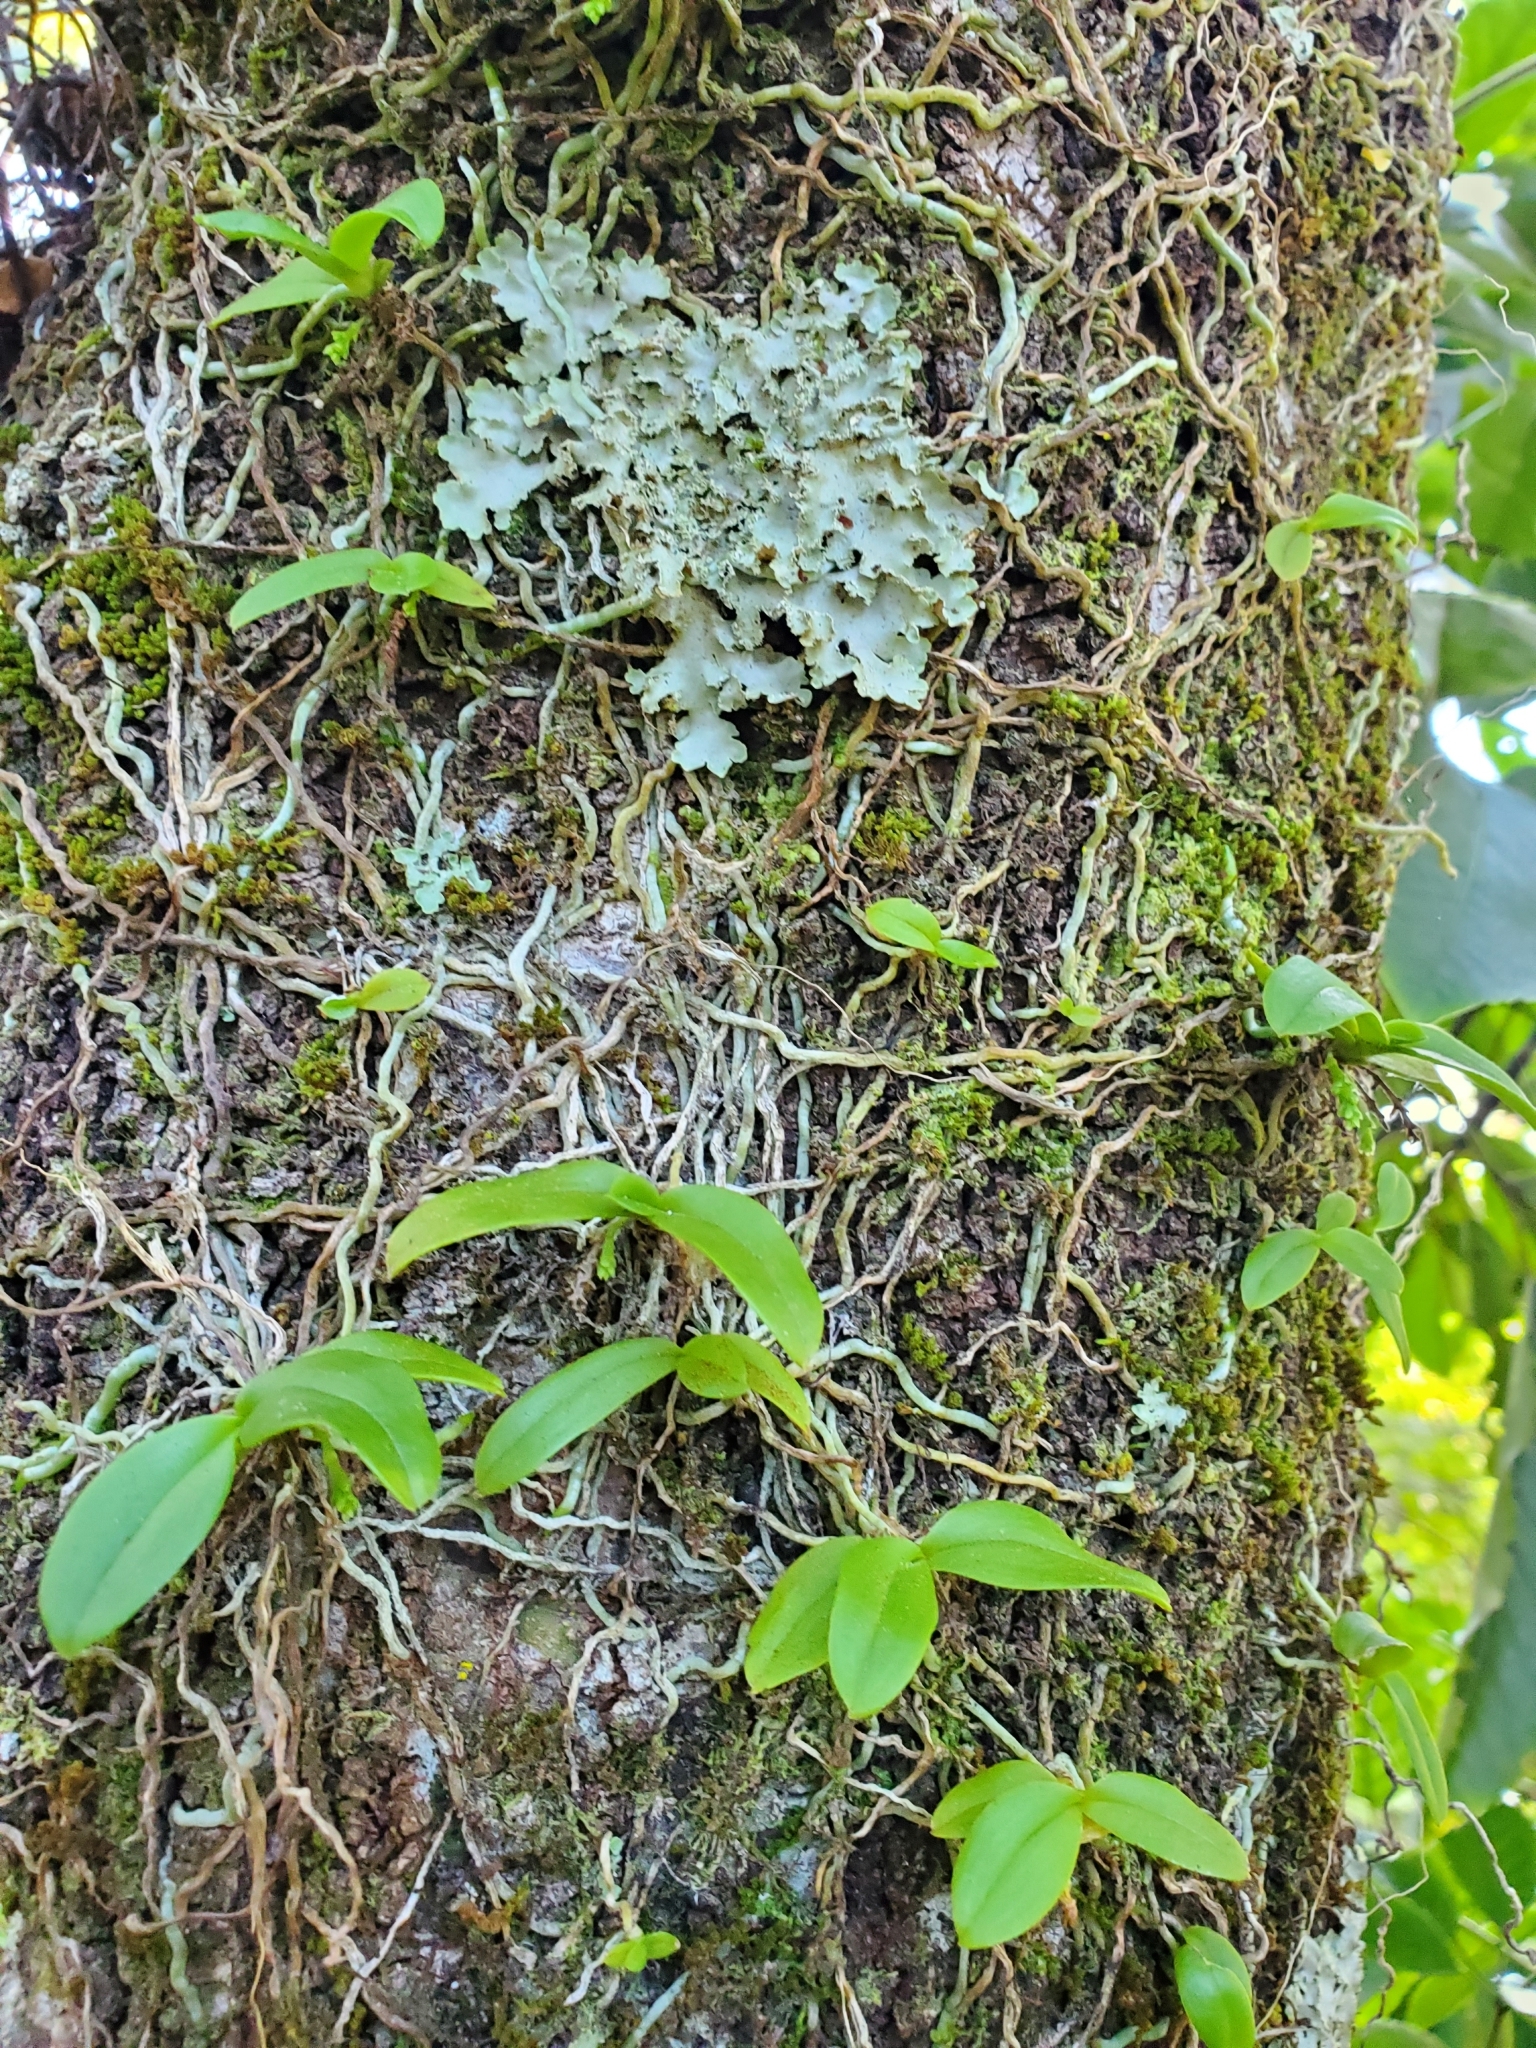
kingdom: Plantae
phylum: Tracheophyta
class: Liliopsida
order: Asparagales
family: Orchidaceae
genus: Drymoanthus
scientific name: Drymoanthus adversus
